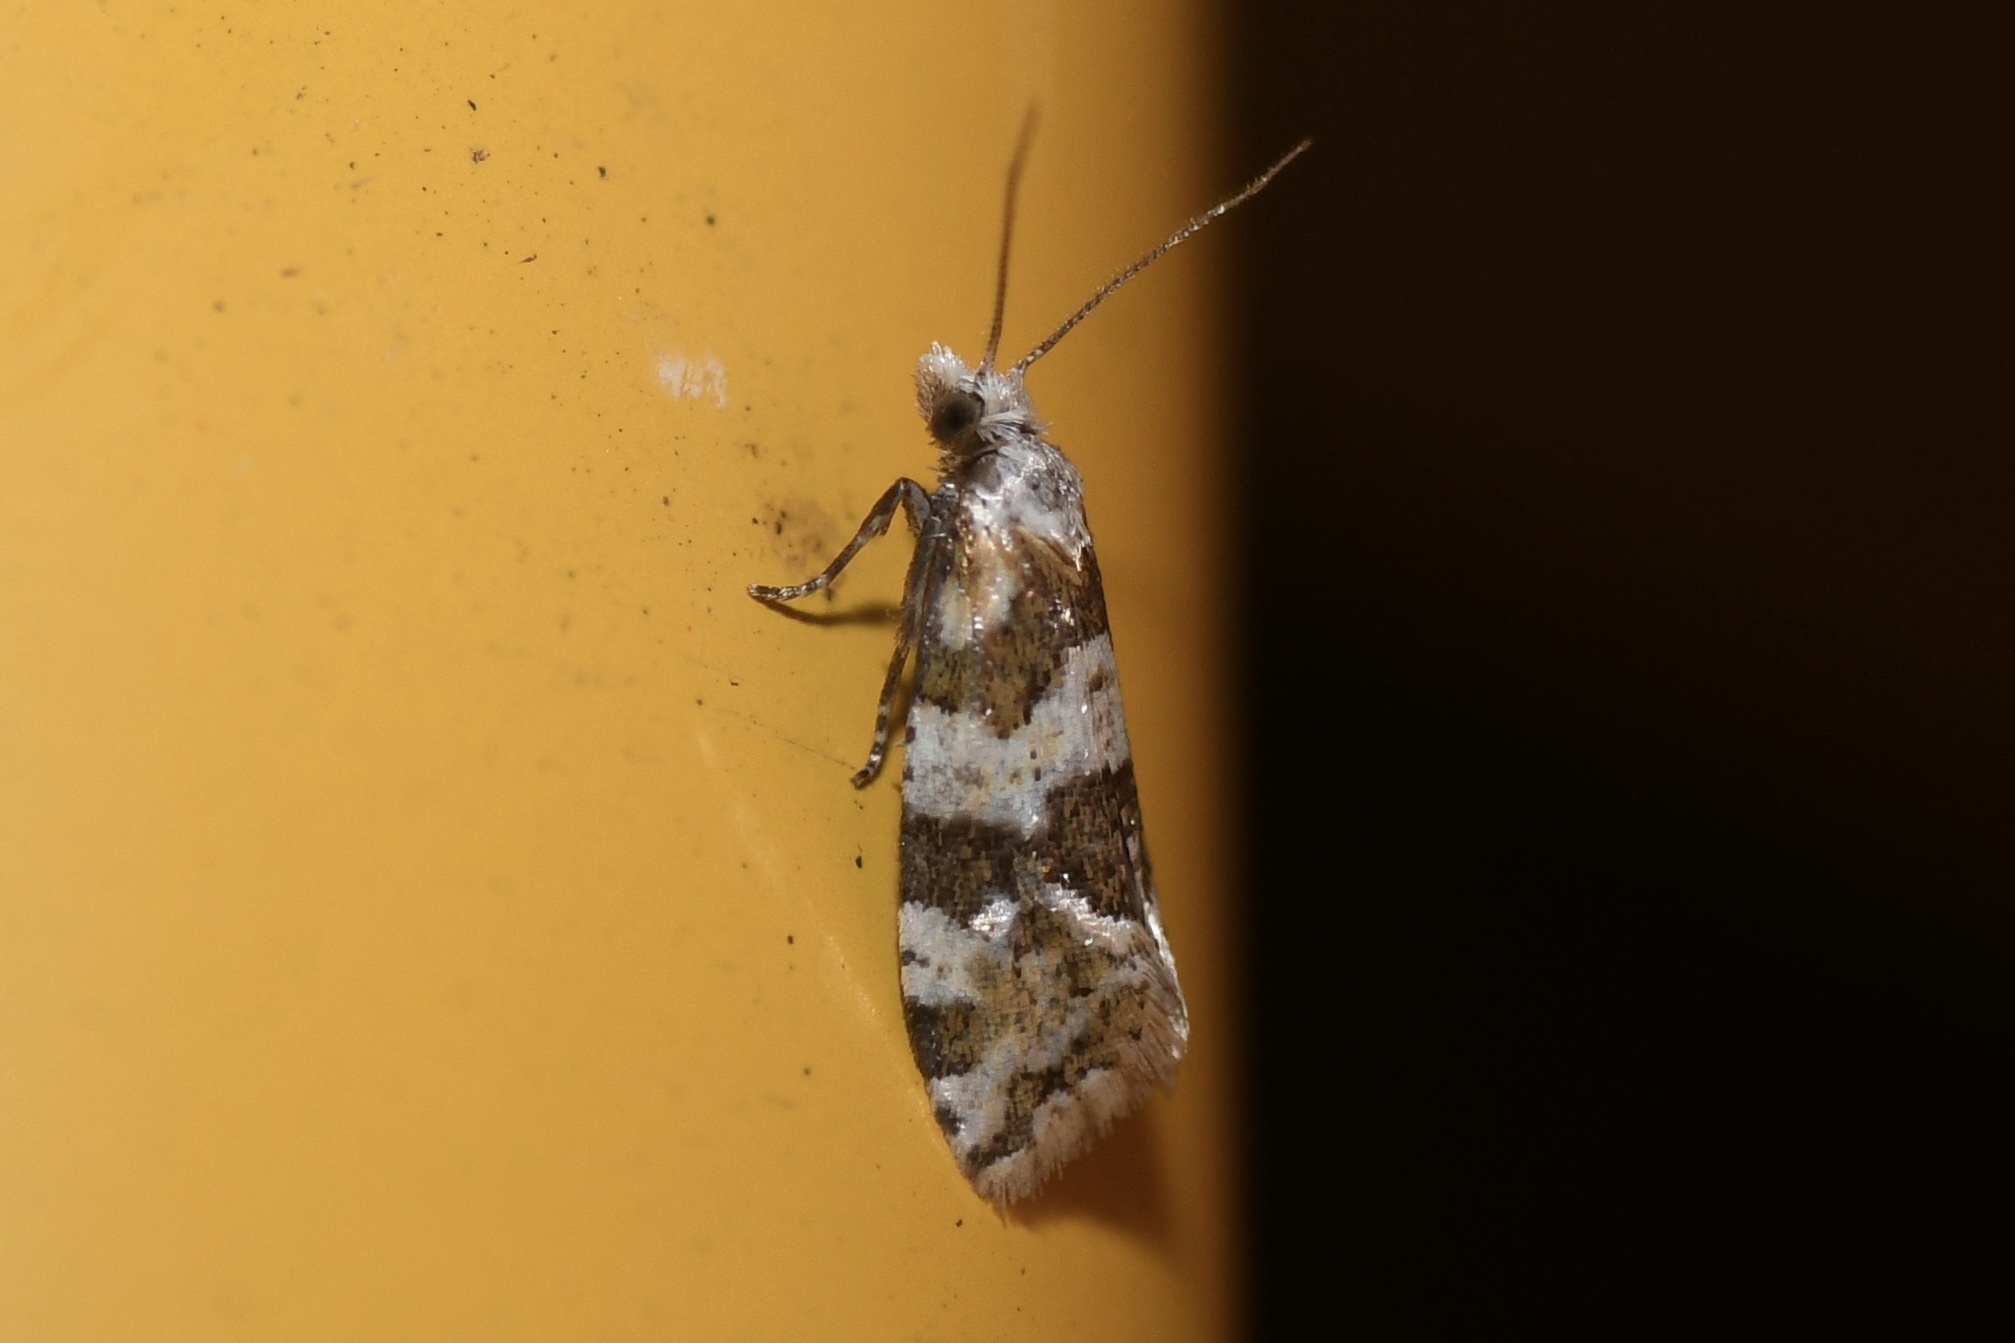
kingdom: Animalia
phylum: Arthropoda
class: Insecta
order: Lepidoptera
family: Tortricidae
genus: Aethes
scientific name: Aethes argentilimitana
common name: Silver-bordered aethes
